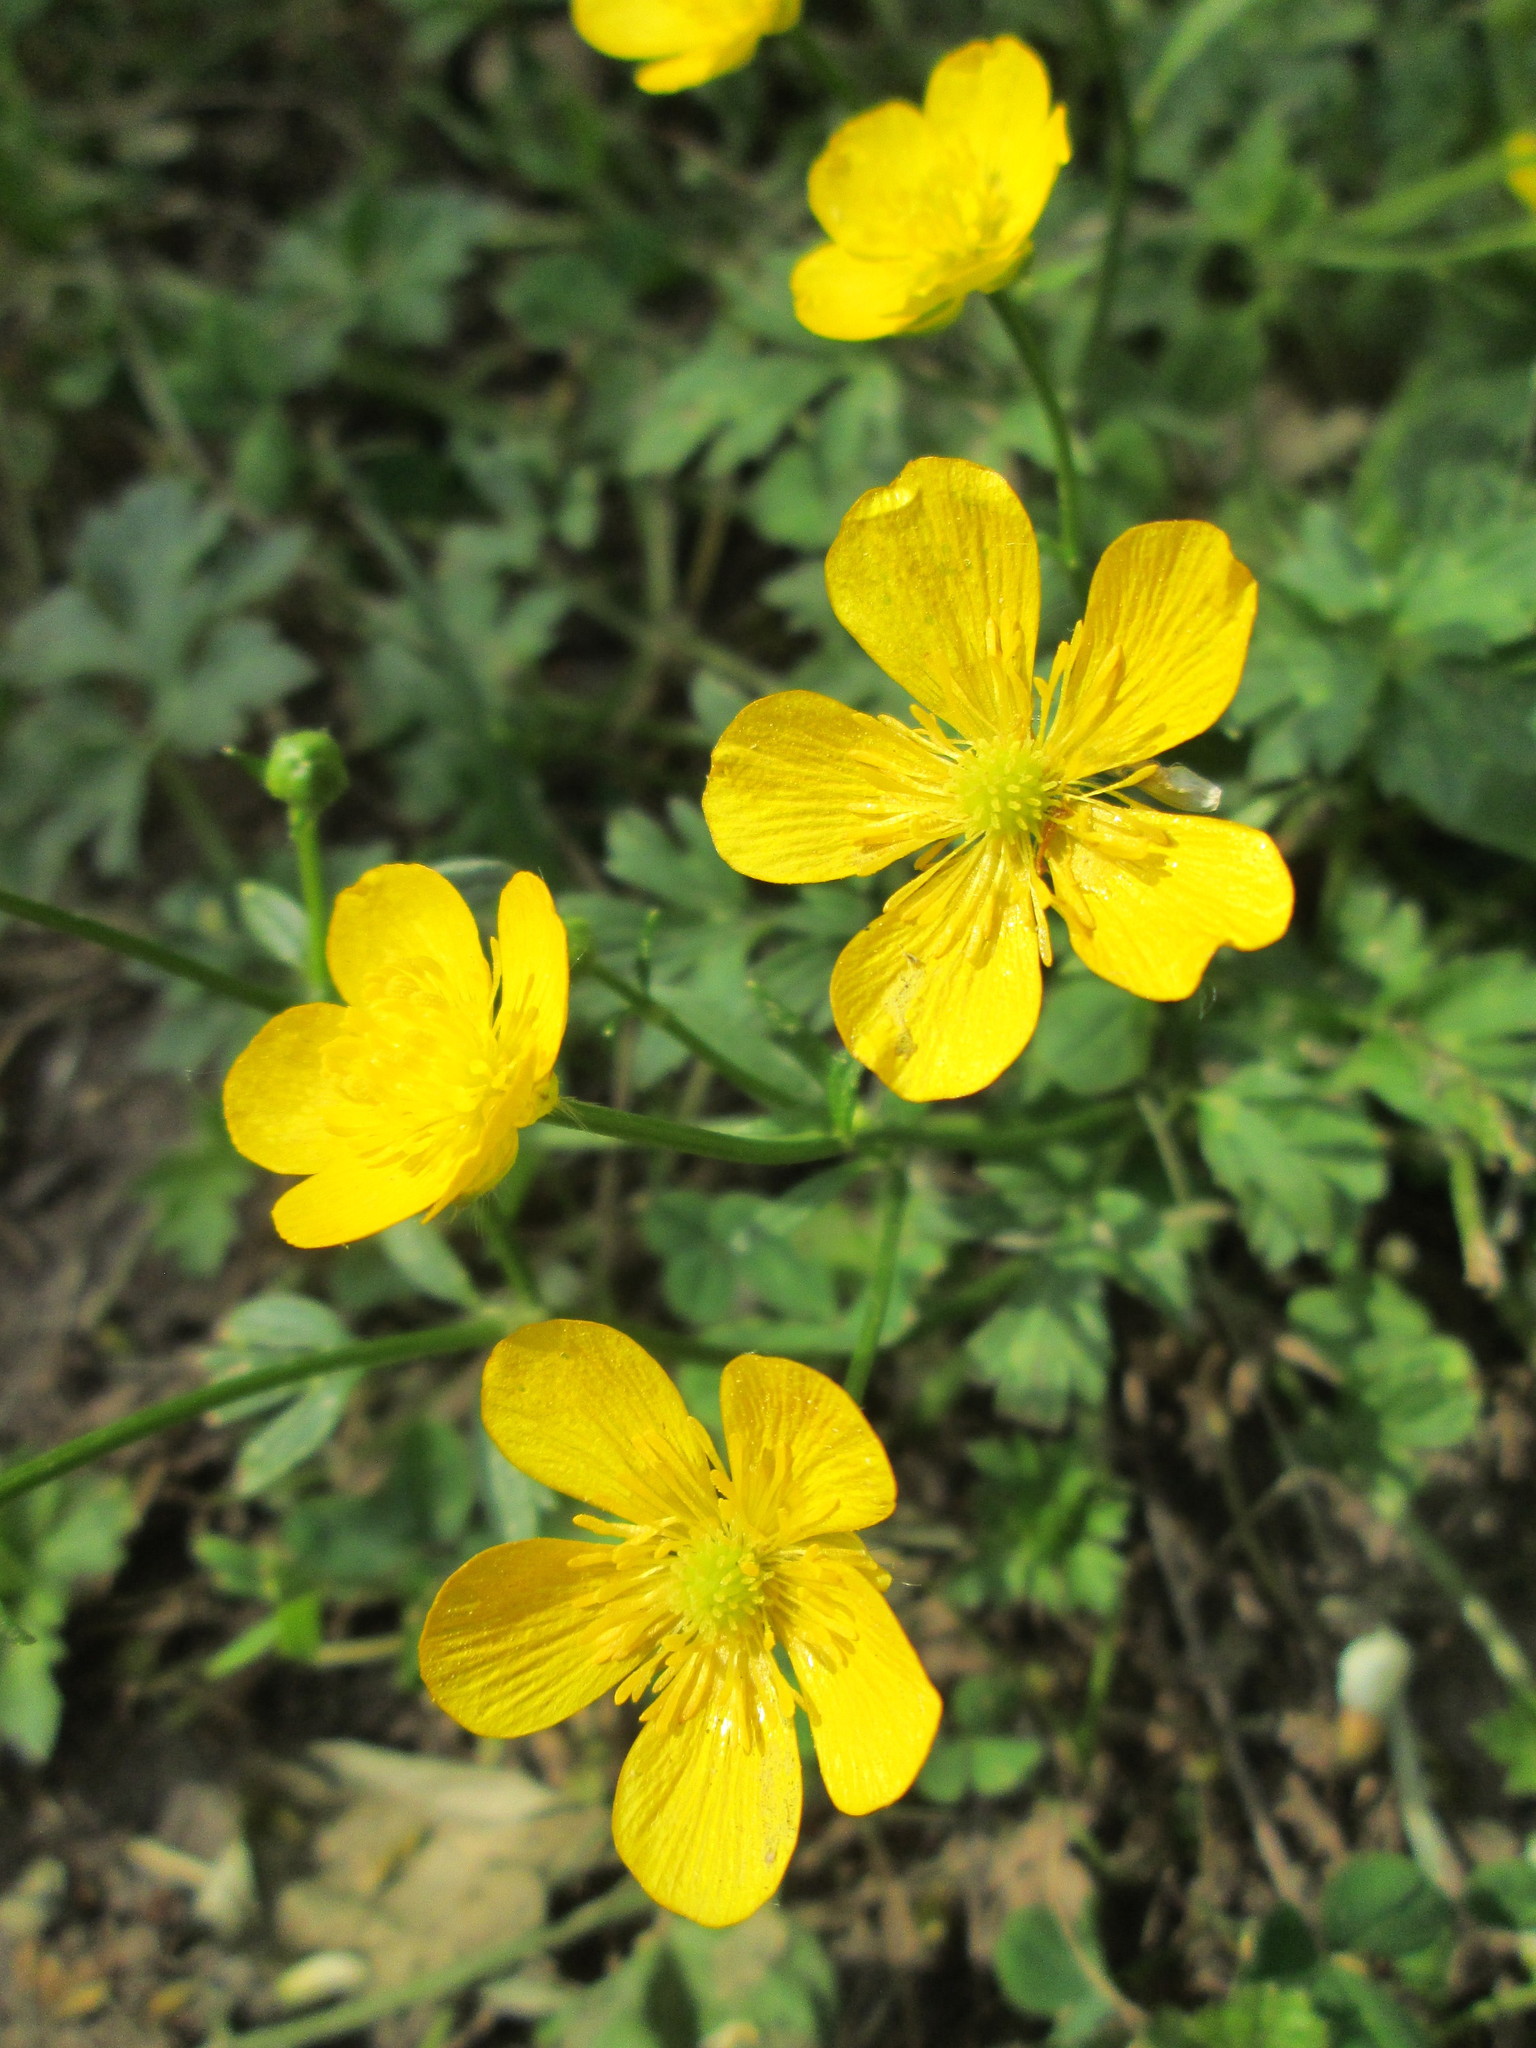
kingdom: Plantae
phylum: Tracheophyta
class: Magnoliopsida
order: Ranunculales
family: Ranunculaceae
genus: Ranunculus
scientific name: Ranunculus repens
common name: Creeping buttercup
